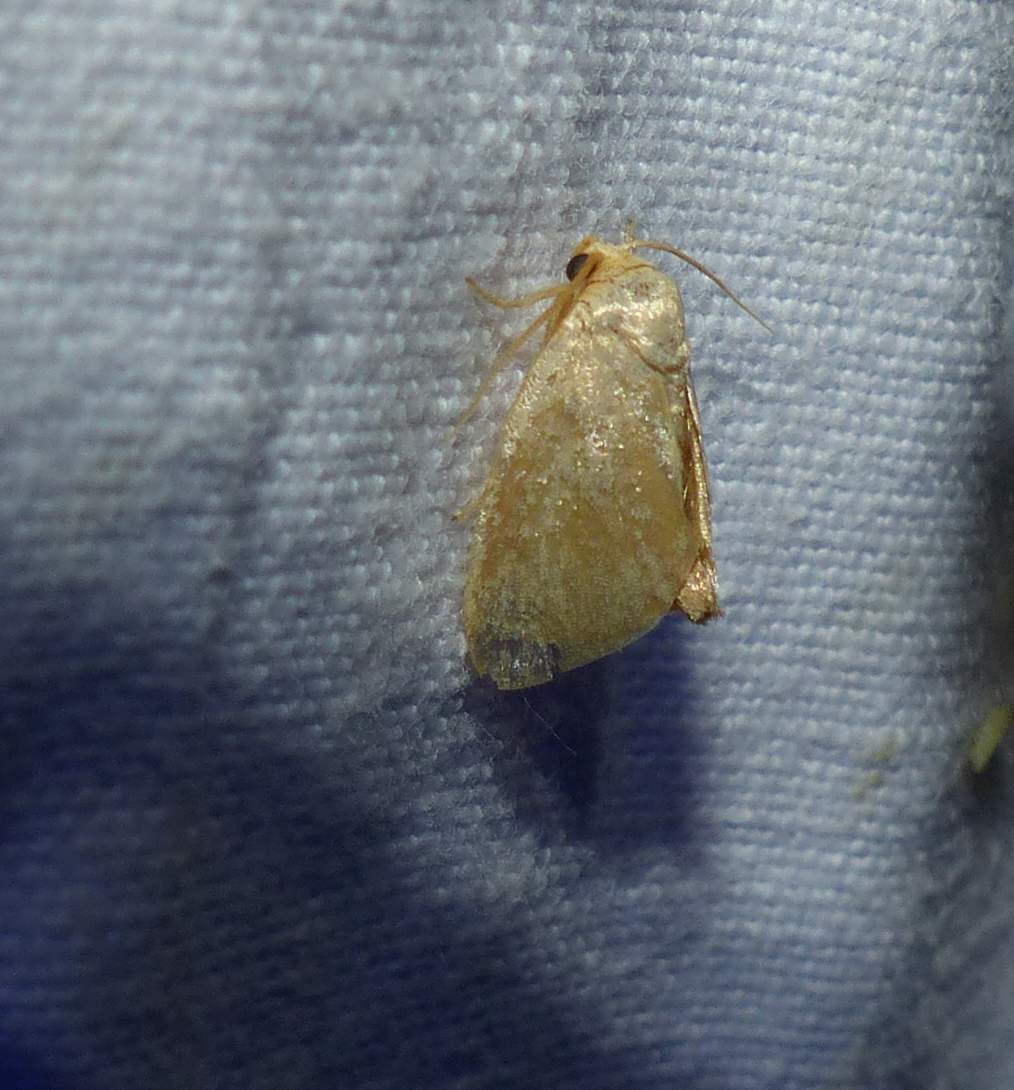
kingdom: Animalia
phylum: Arthropoda
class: Insecta
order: Lepidoptera
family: Limacodidae
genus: Tortricidia
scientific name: Tortricidia pallida
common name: Red-crossed button slug moth
